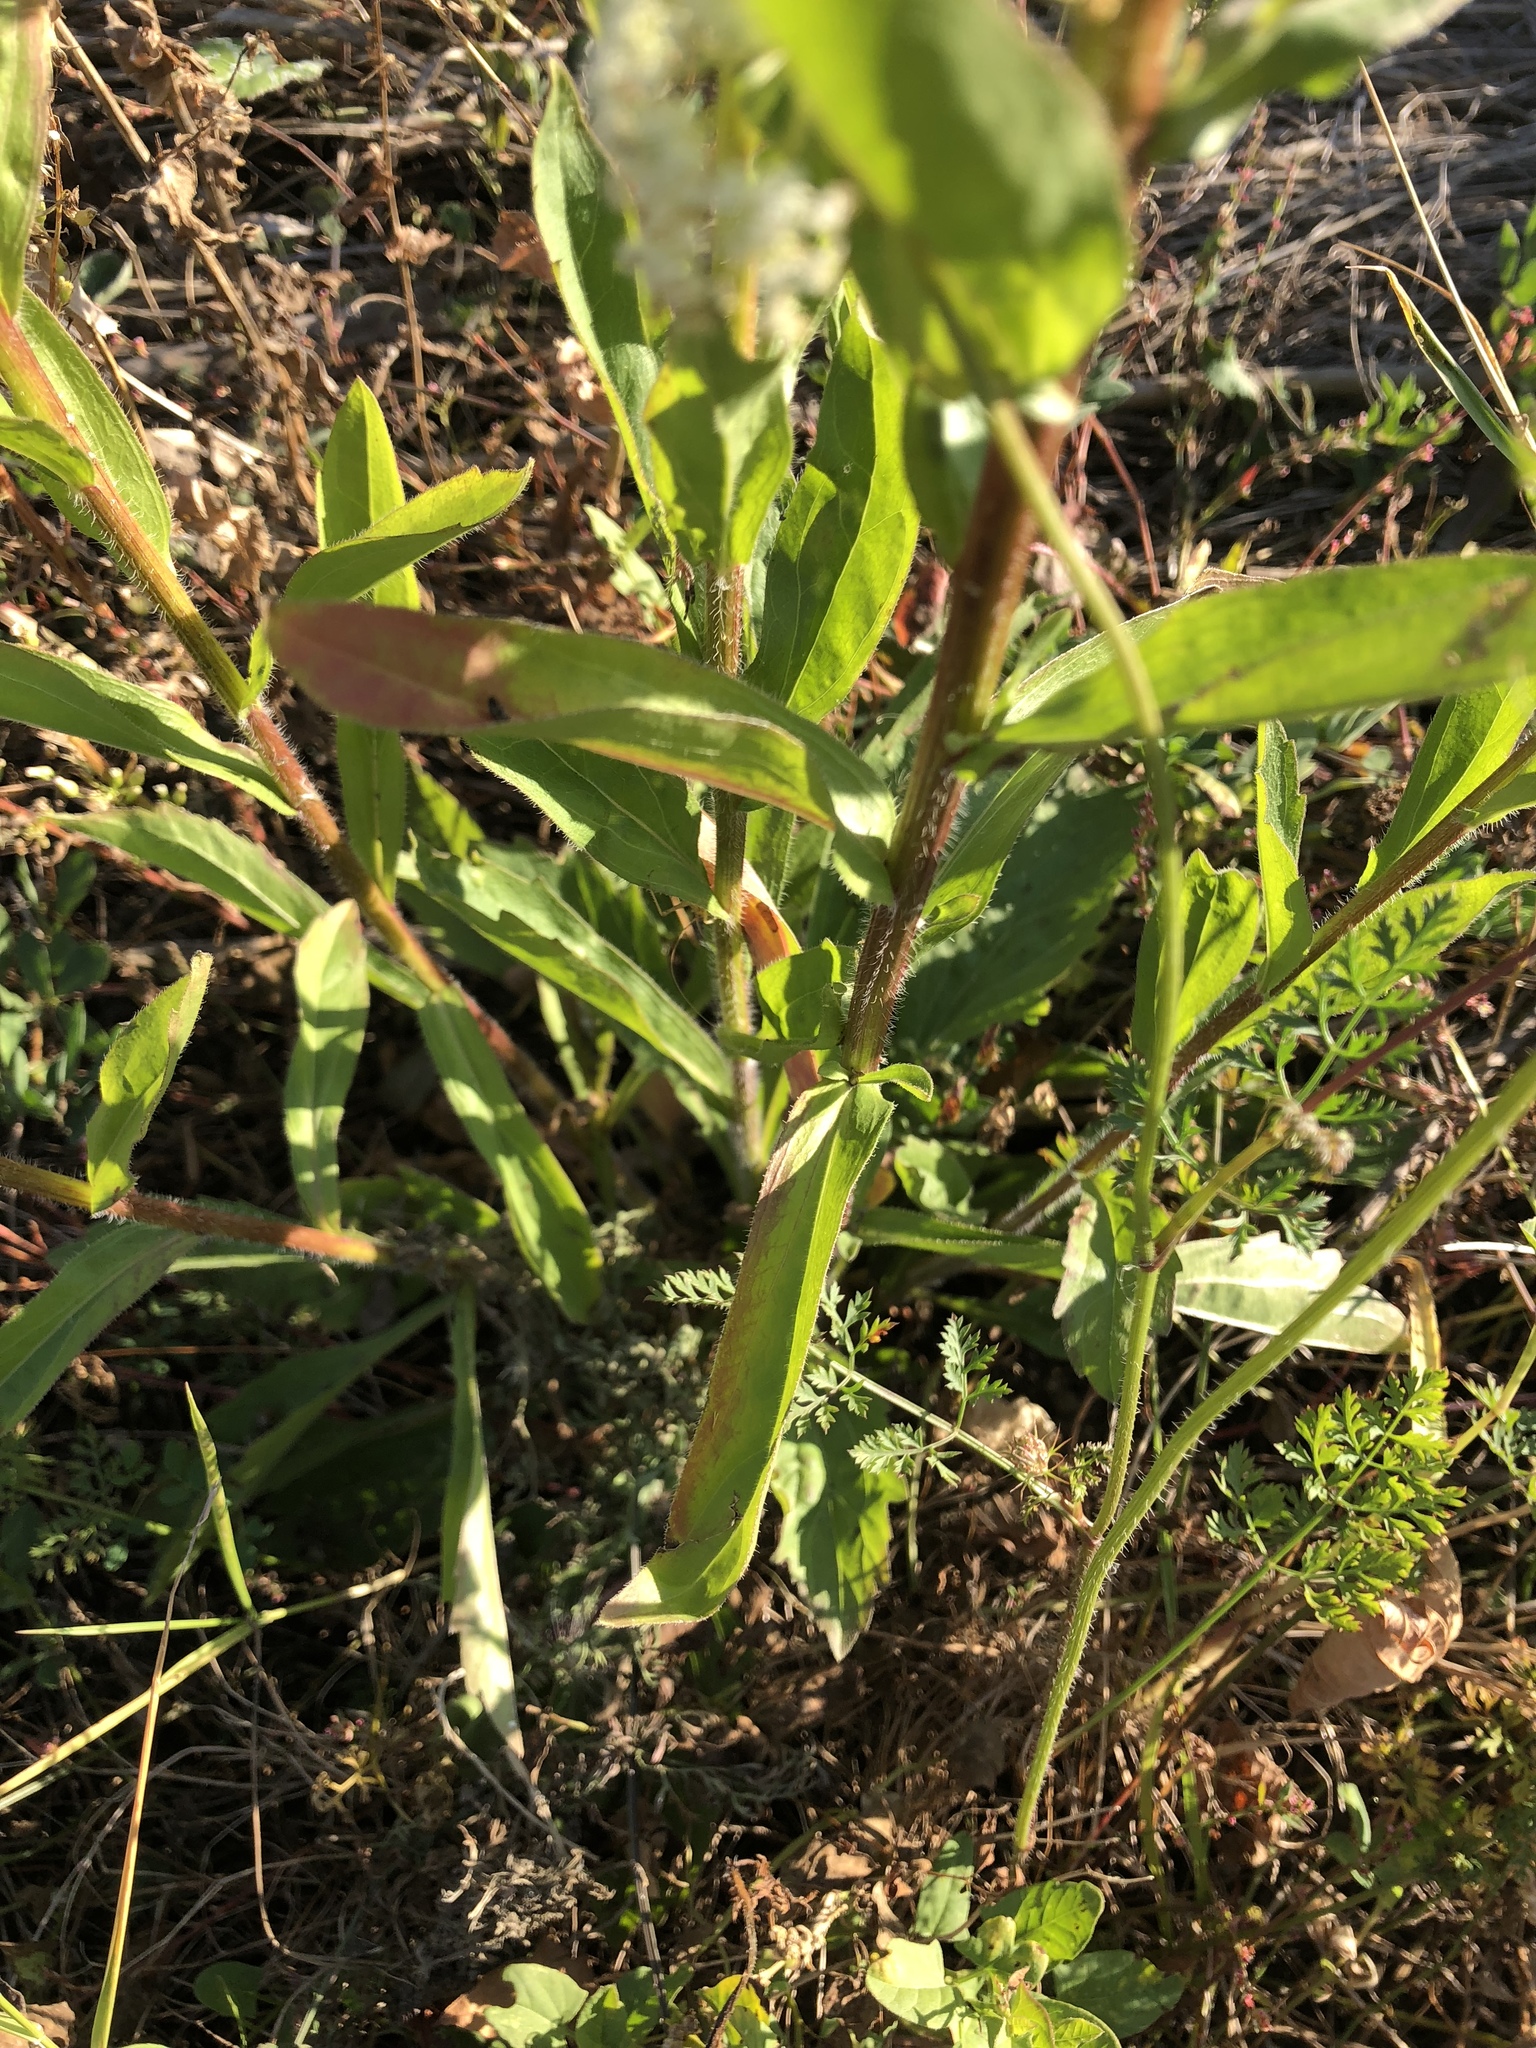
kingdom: Plantae
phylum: Tracheophyta
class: Magnoliopsida
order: Asterales
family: Asteraceae
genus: Erigeron
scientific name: Erigeron annuus
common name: Tall fleabane
